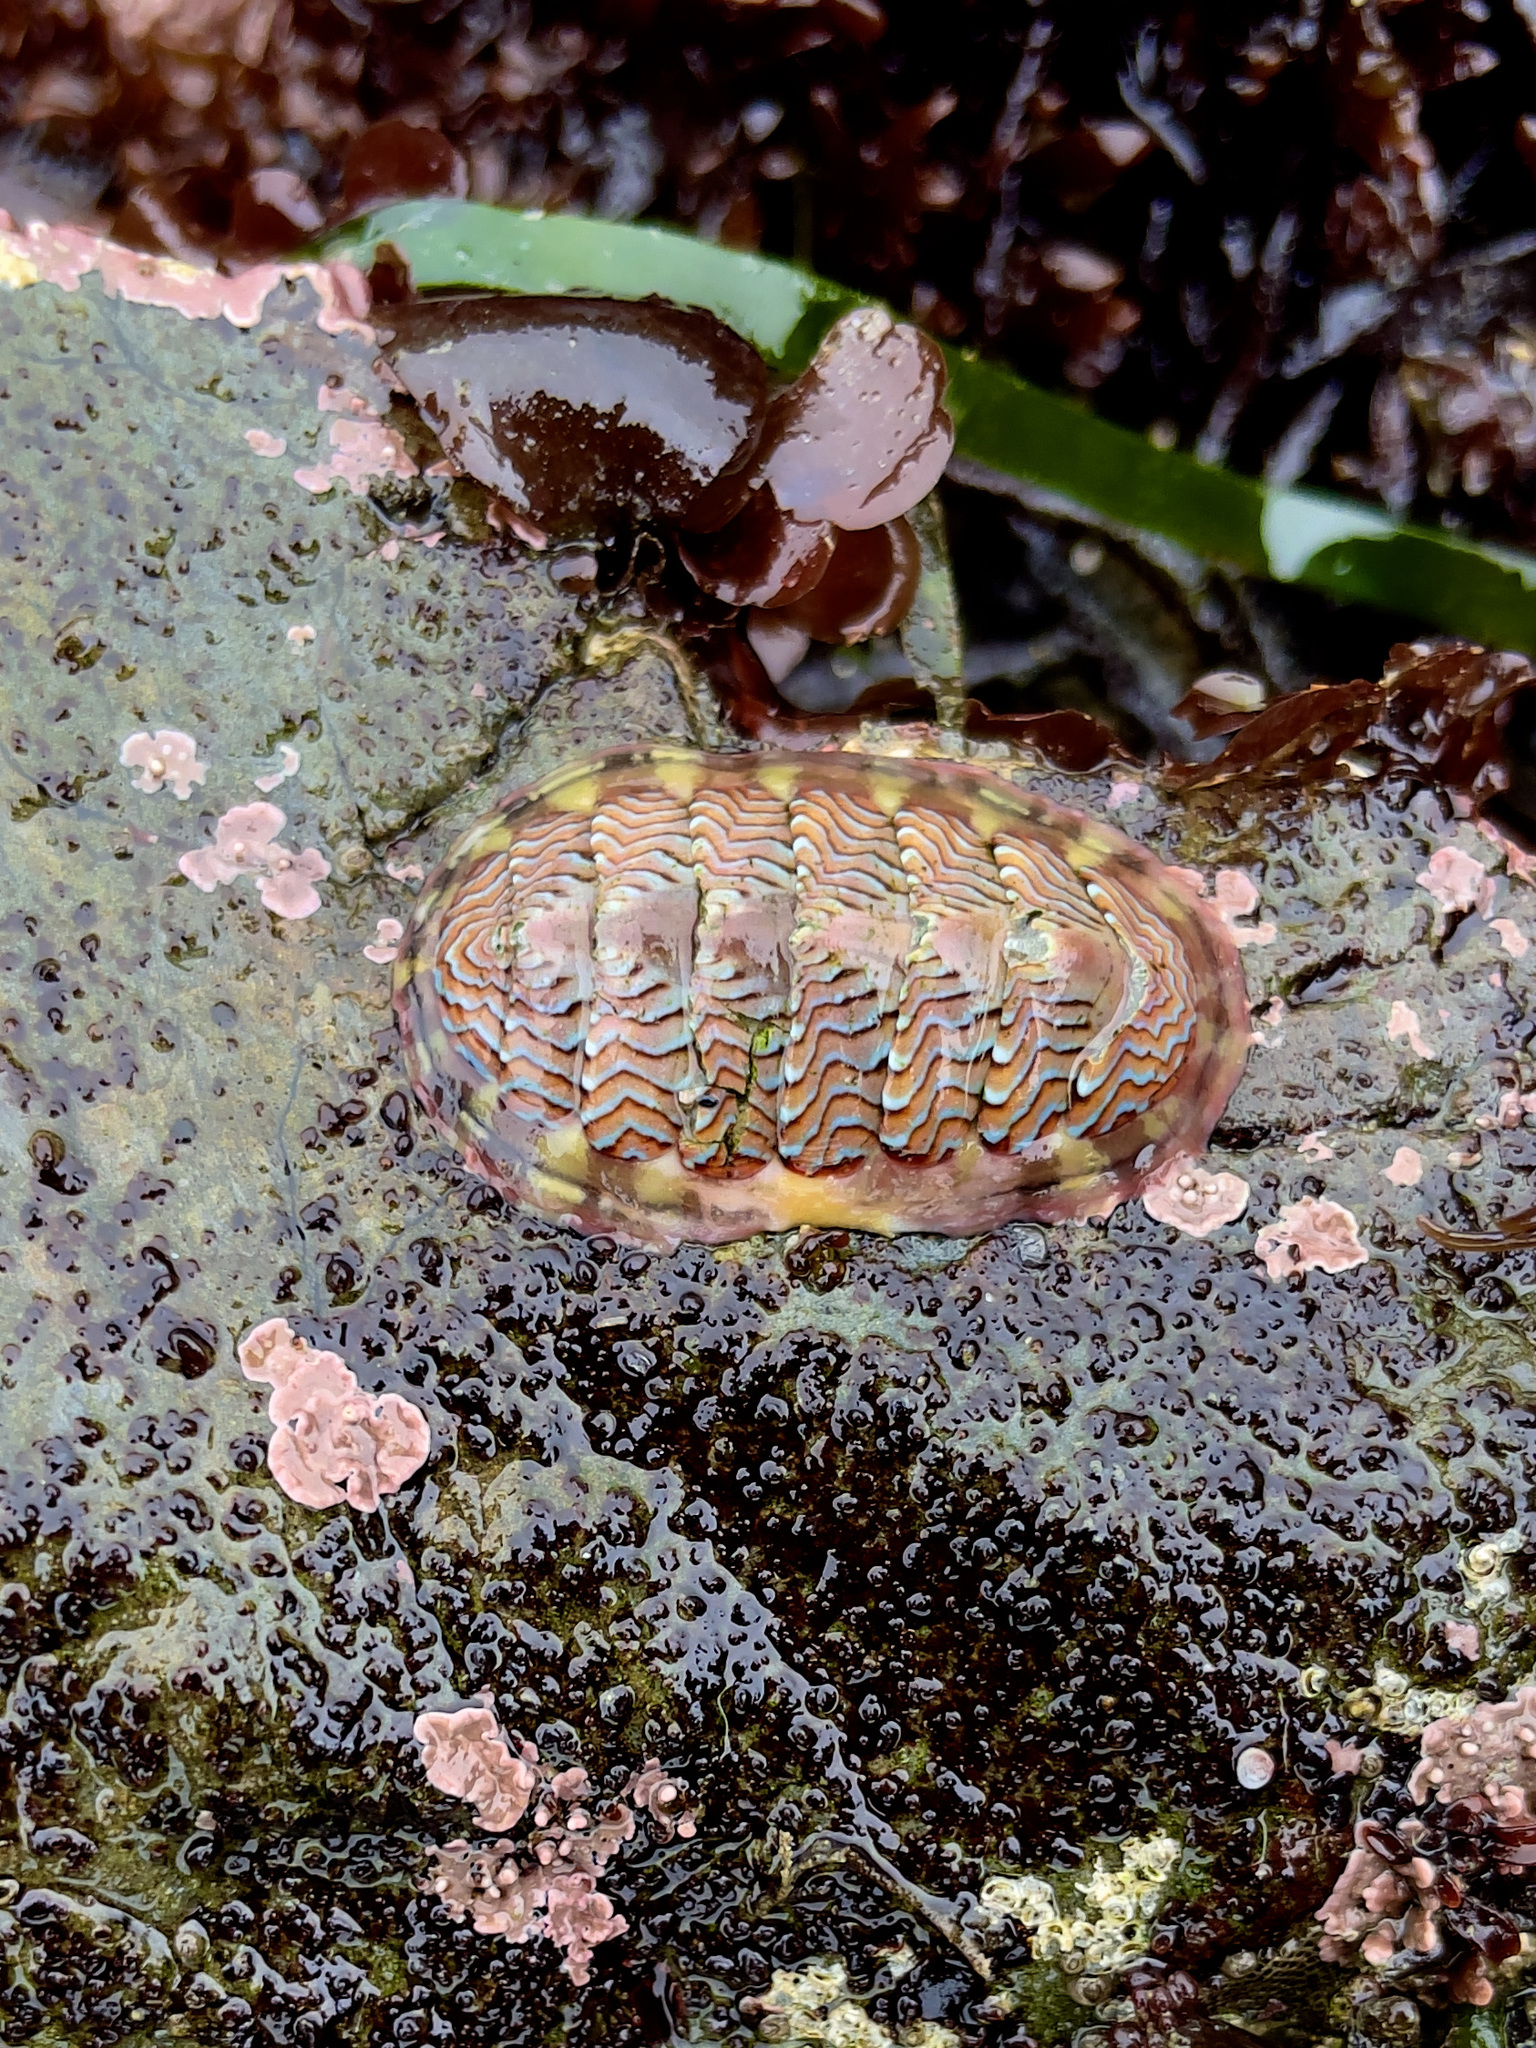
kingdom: Animalia
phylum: Mollusca
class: Polyplacophora
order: Chitonida
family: Tonicellidae
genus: Tonicella
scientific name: Tonicella lokii
